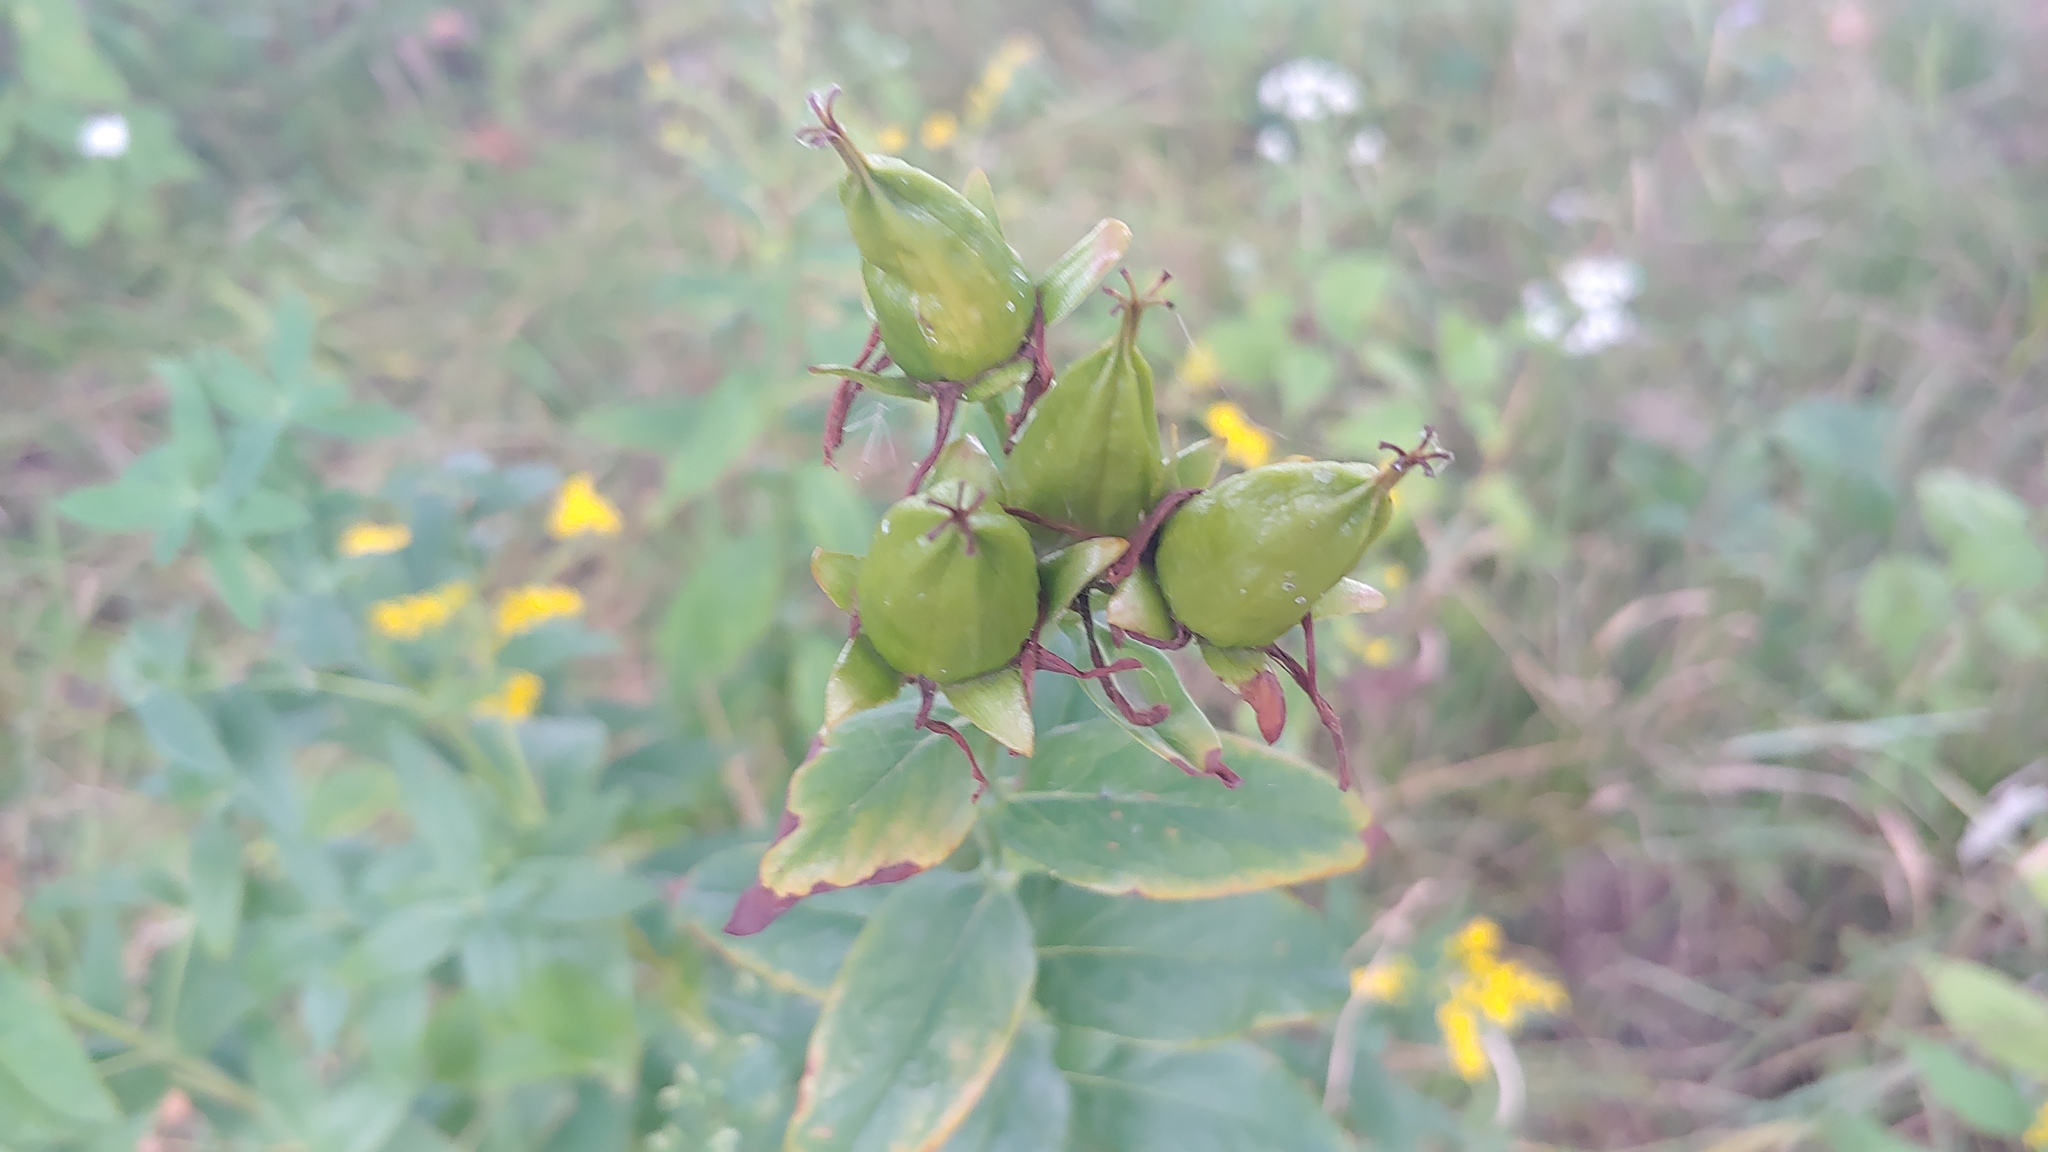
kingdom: Plantae
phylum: Tracheophyta
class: Magnoliopsida
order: Malpighiales
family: Hypericaceae
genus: Hypericum
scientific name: Hypericum ascyron
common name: Giant st. john's-wort
